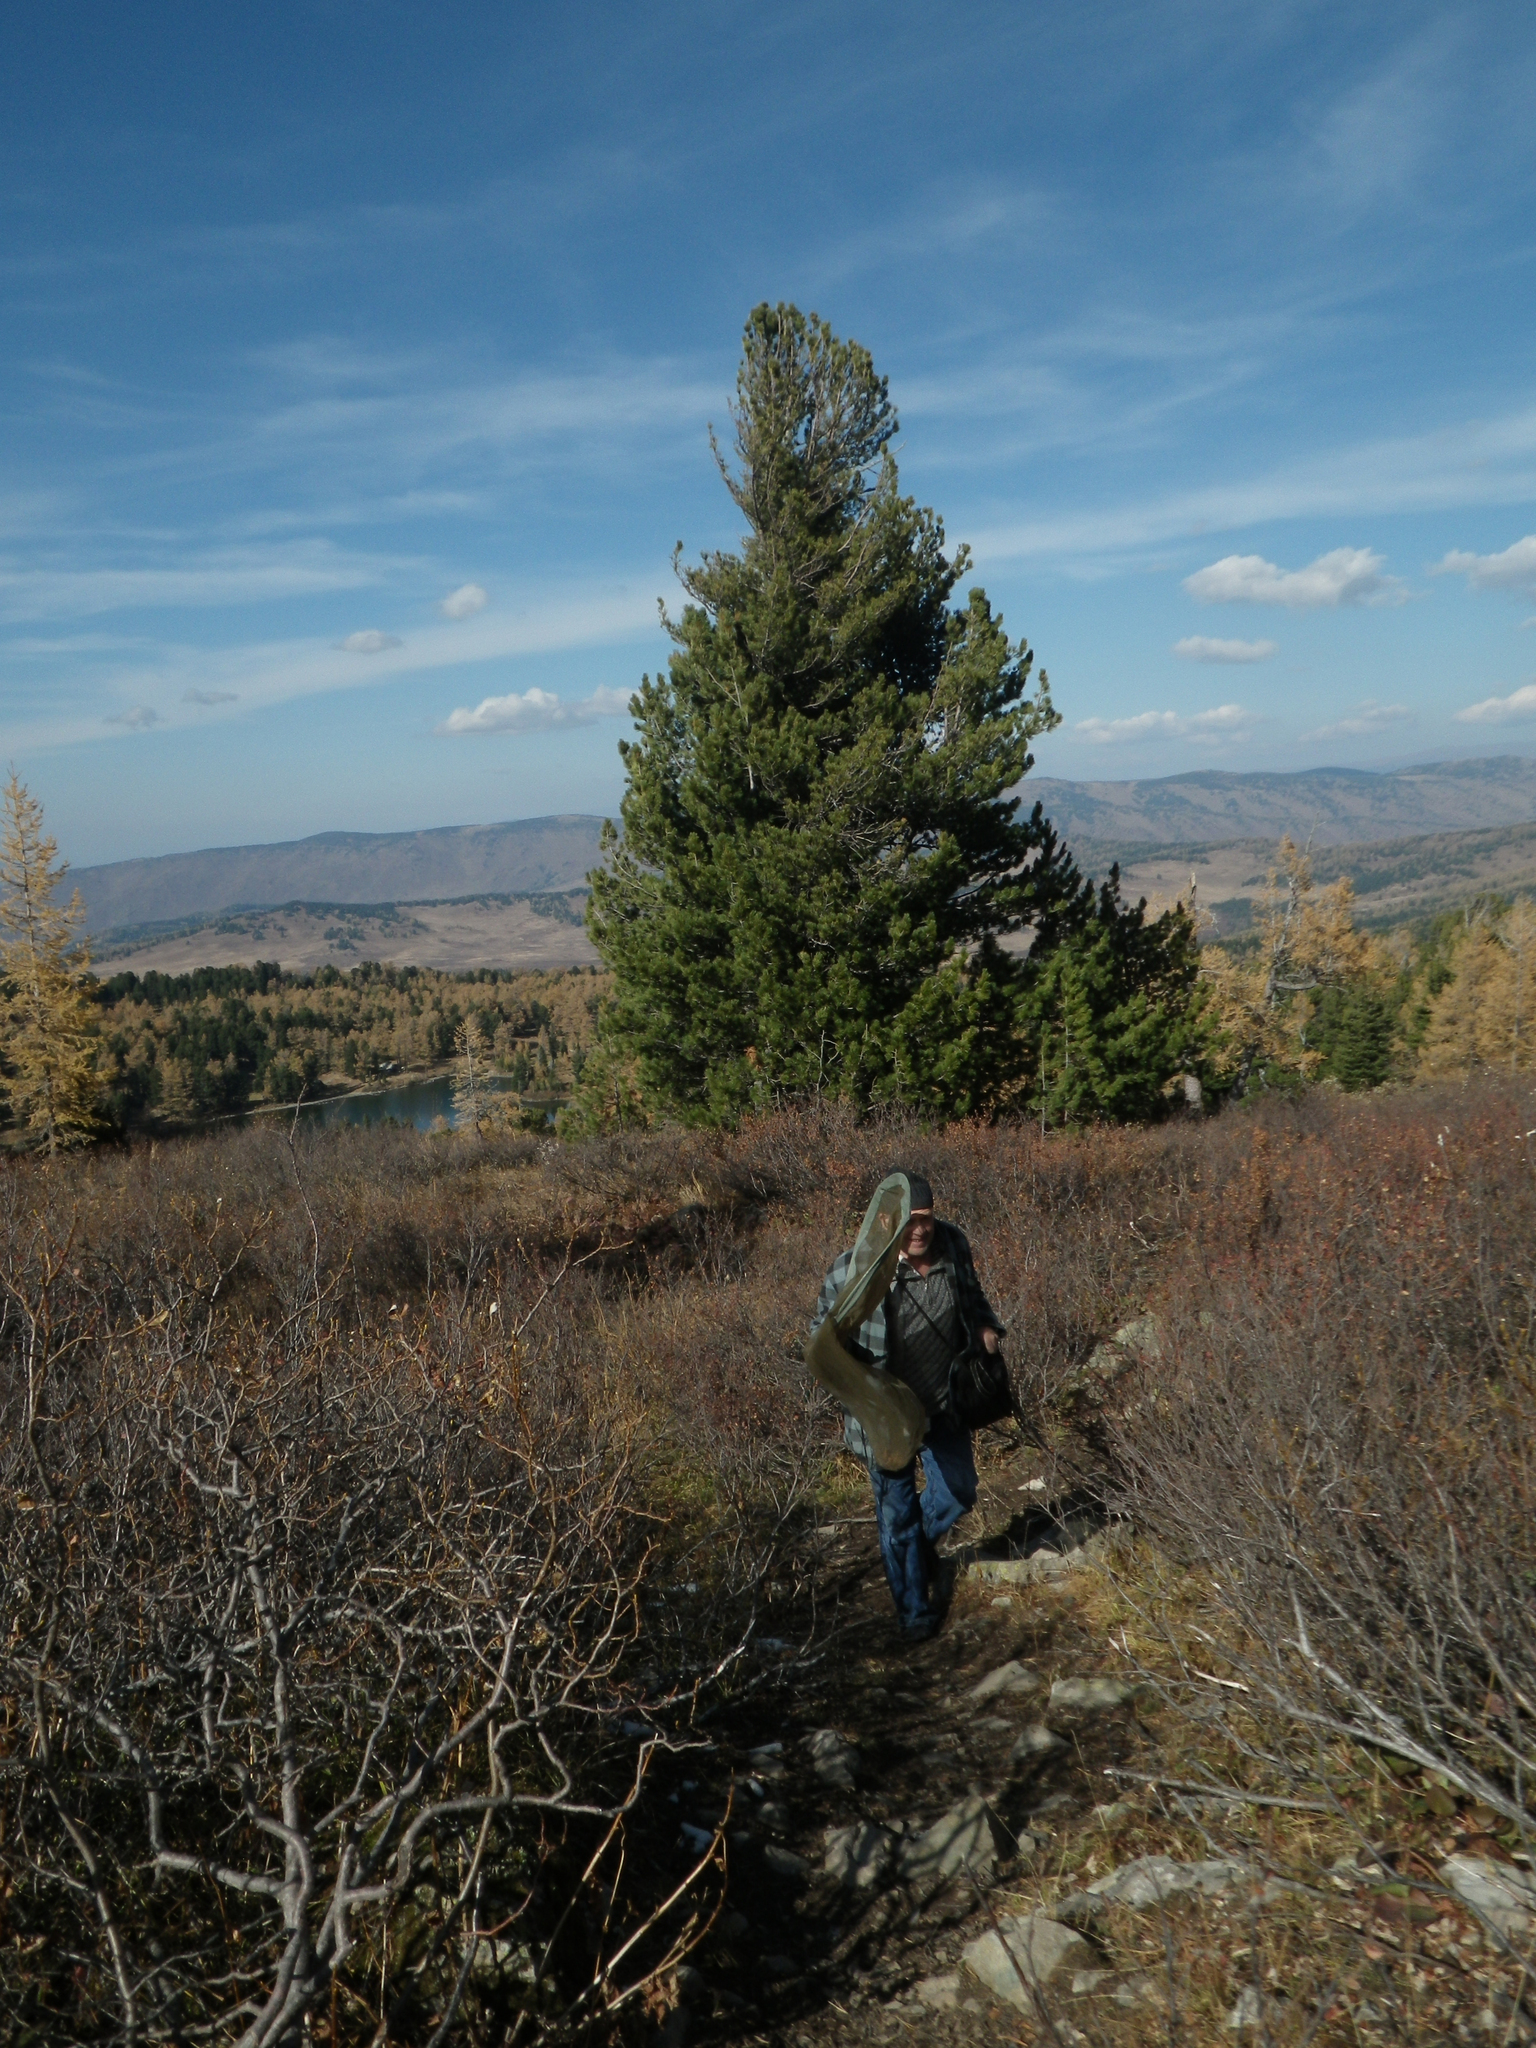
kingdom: Plantae
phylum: Tracheophyta
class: Pinopsida
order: Pinales
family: Pinaceae
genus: Pinus
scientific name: Pinus sibirica
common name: Siberian pine
